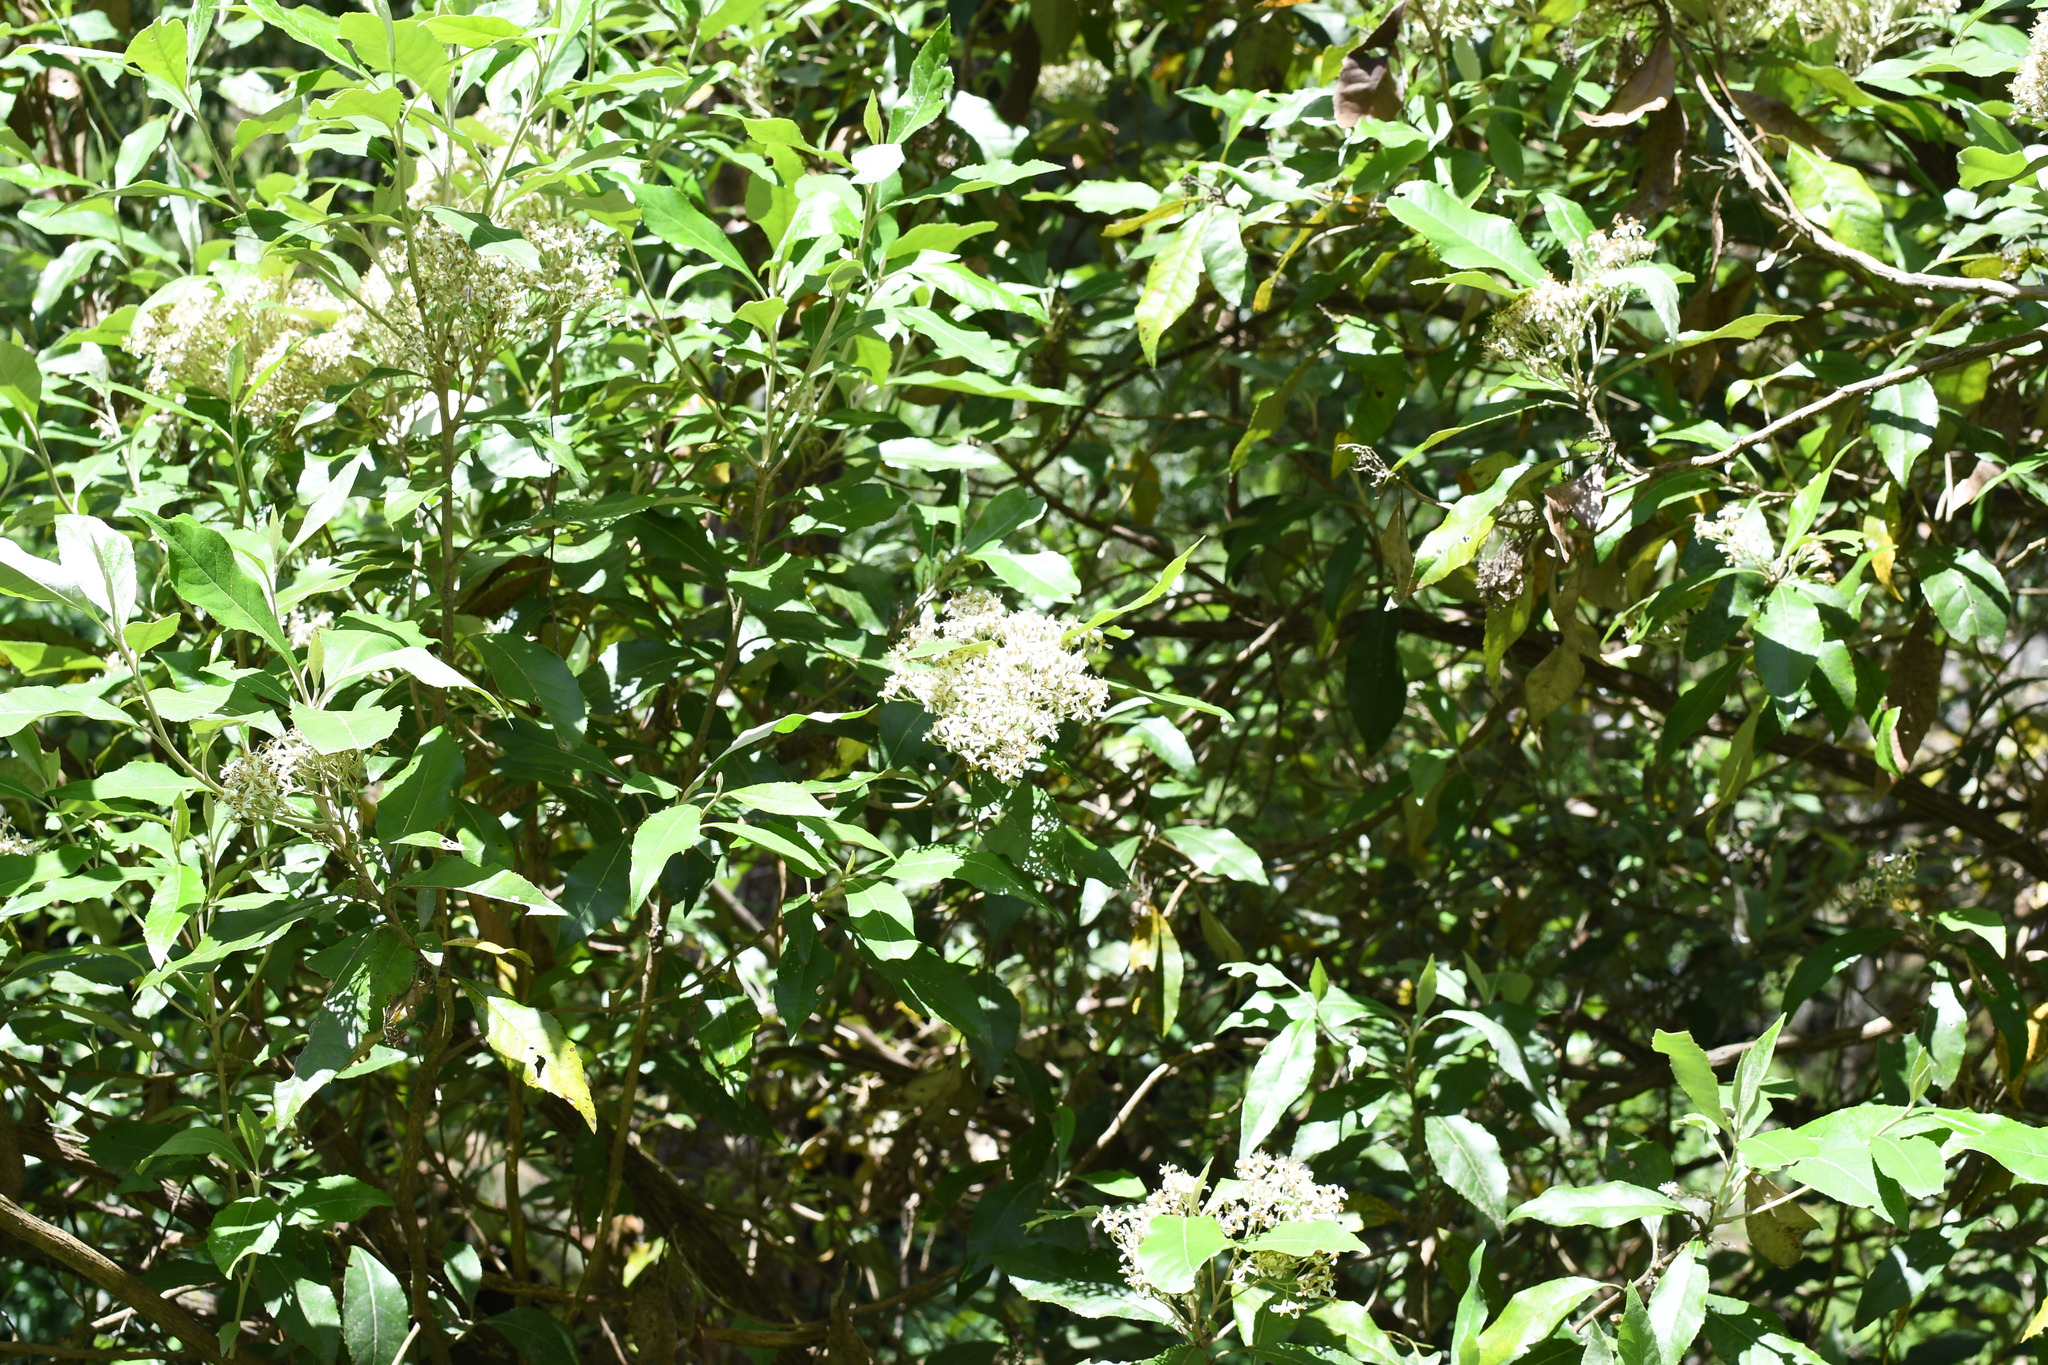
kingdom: Plantae
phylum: Tracheophyta
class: Magnoliopsida
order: Asterales
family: Asteraceae
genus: Olearia
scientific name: Olearia argophylla
